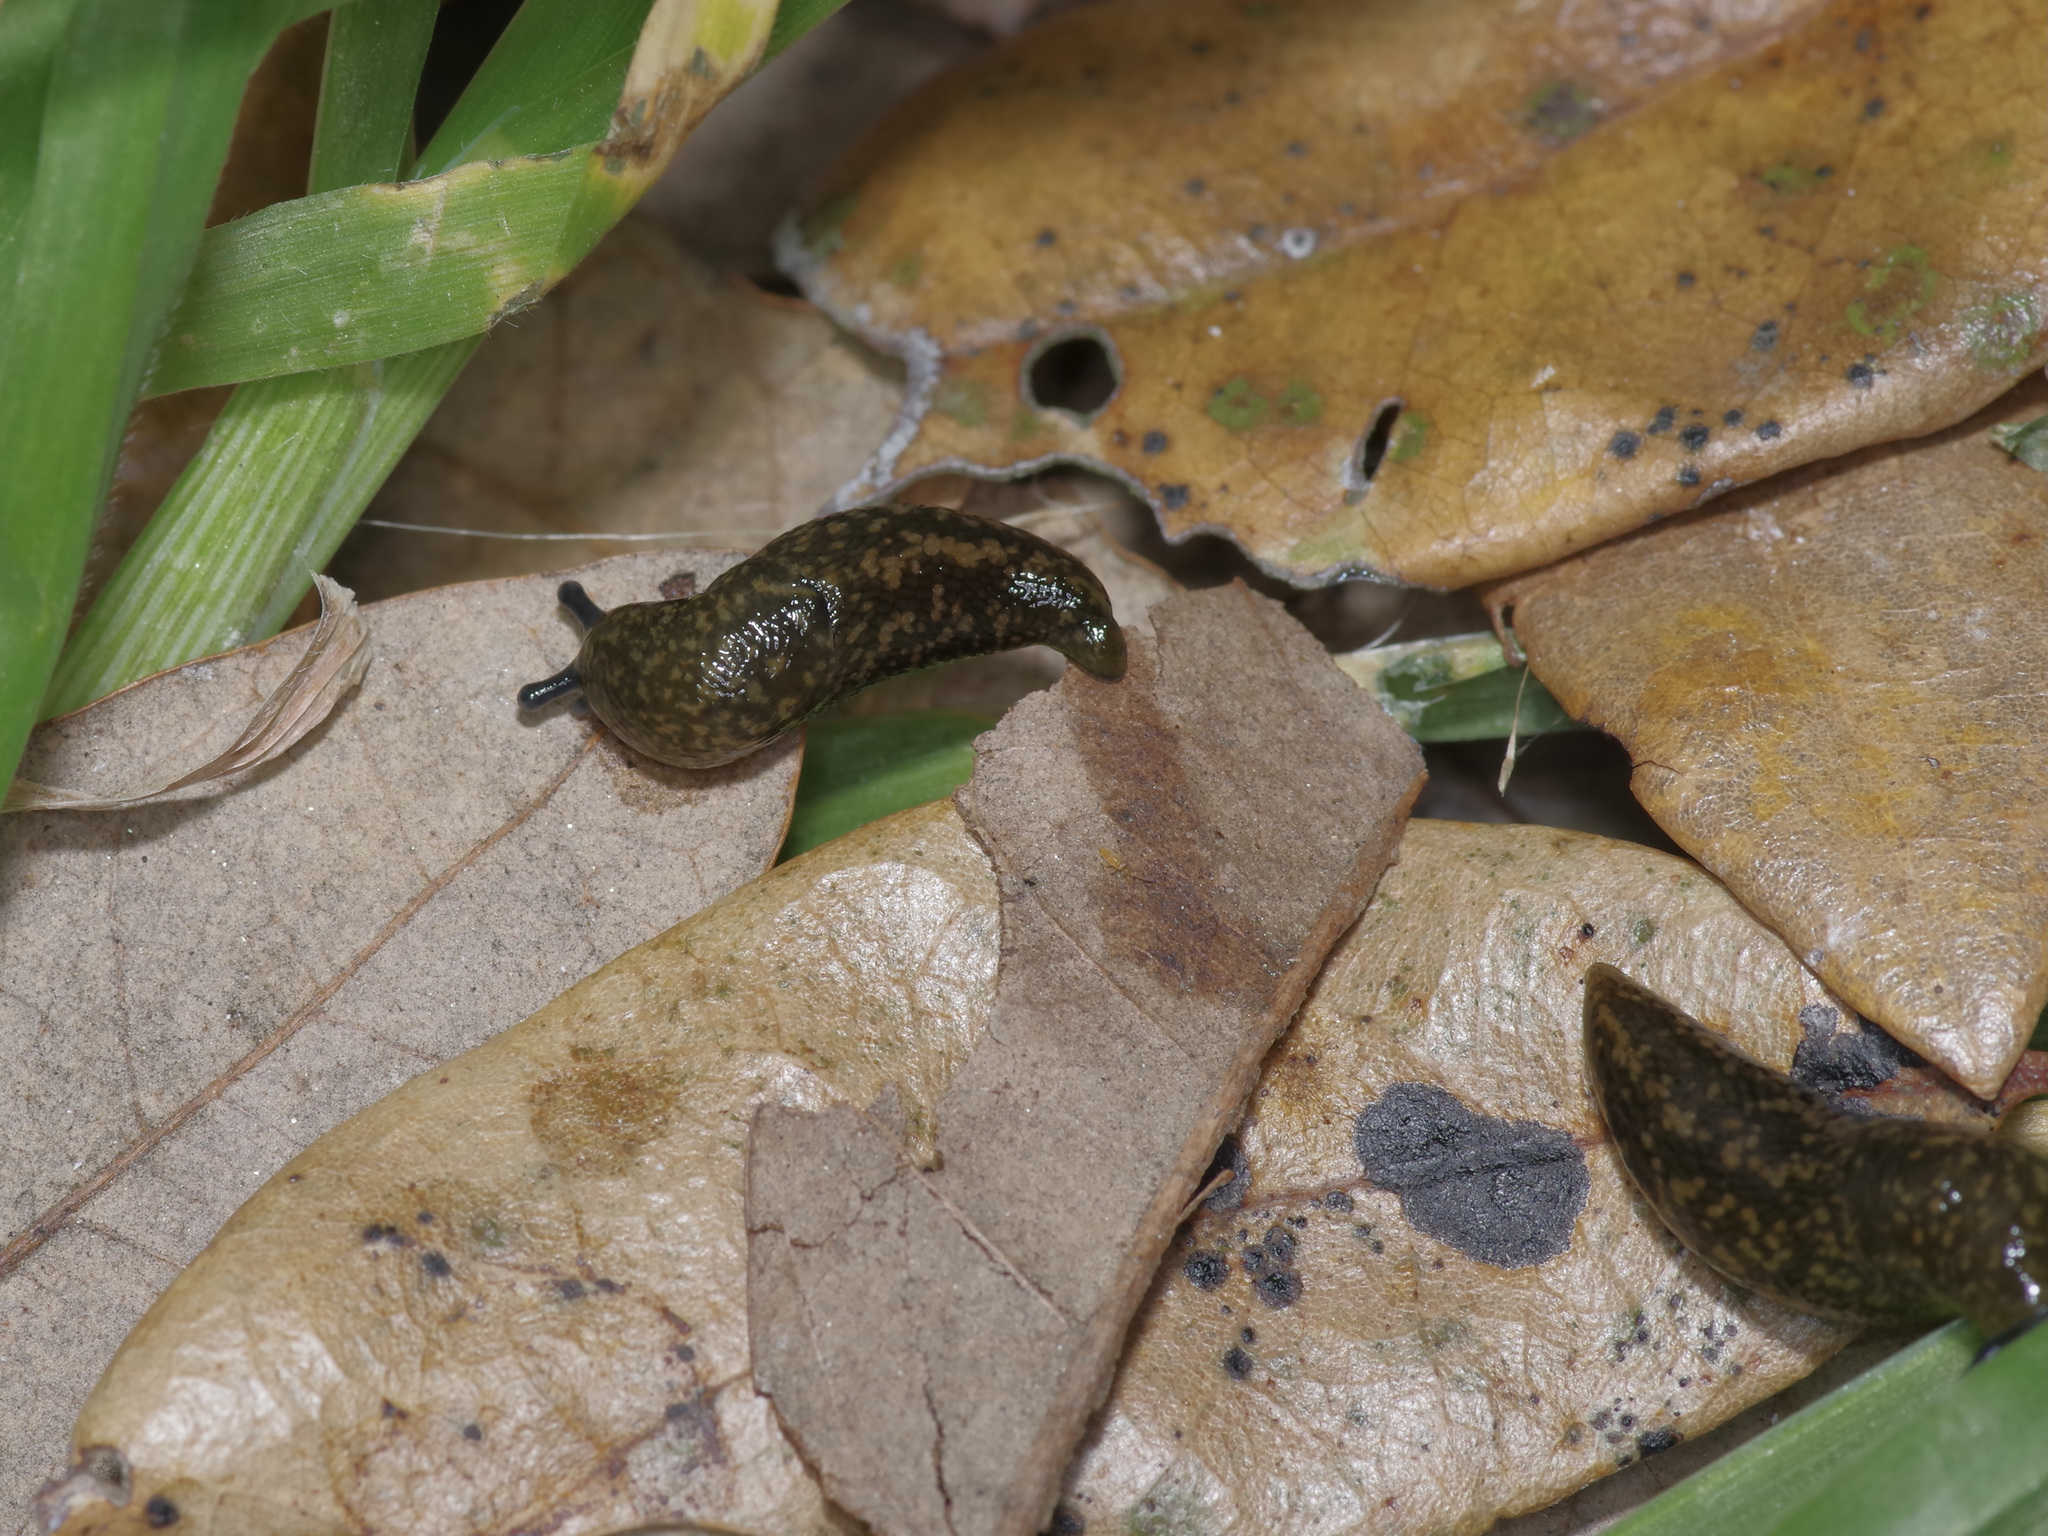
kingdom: Animalia
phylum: Mollusca
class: Gastropoda
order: Stylommatophora
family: Limacidae
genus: Limacus
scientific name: Limacus flavus
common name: Yellow gardenslug
